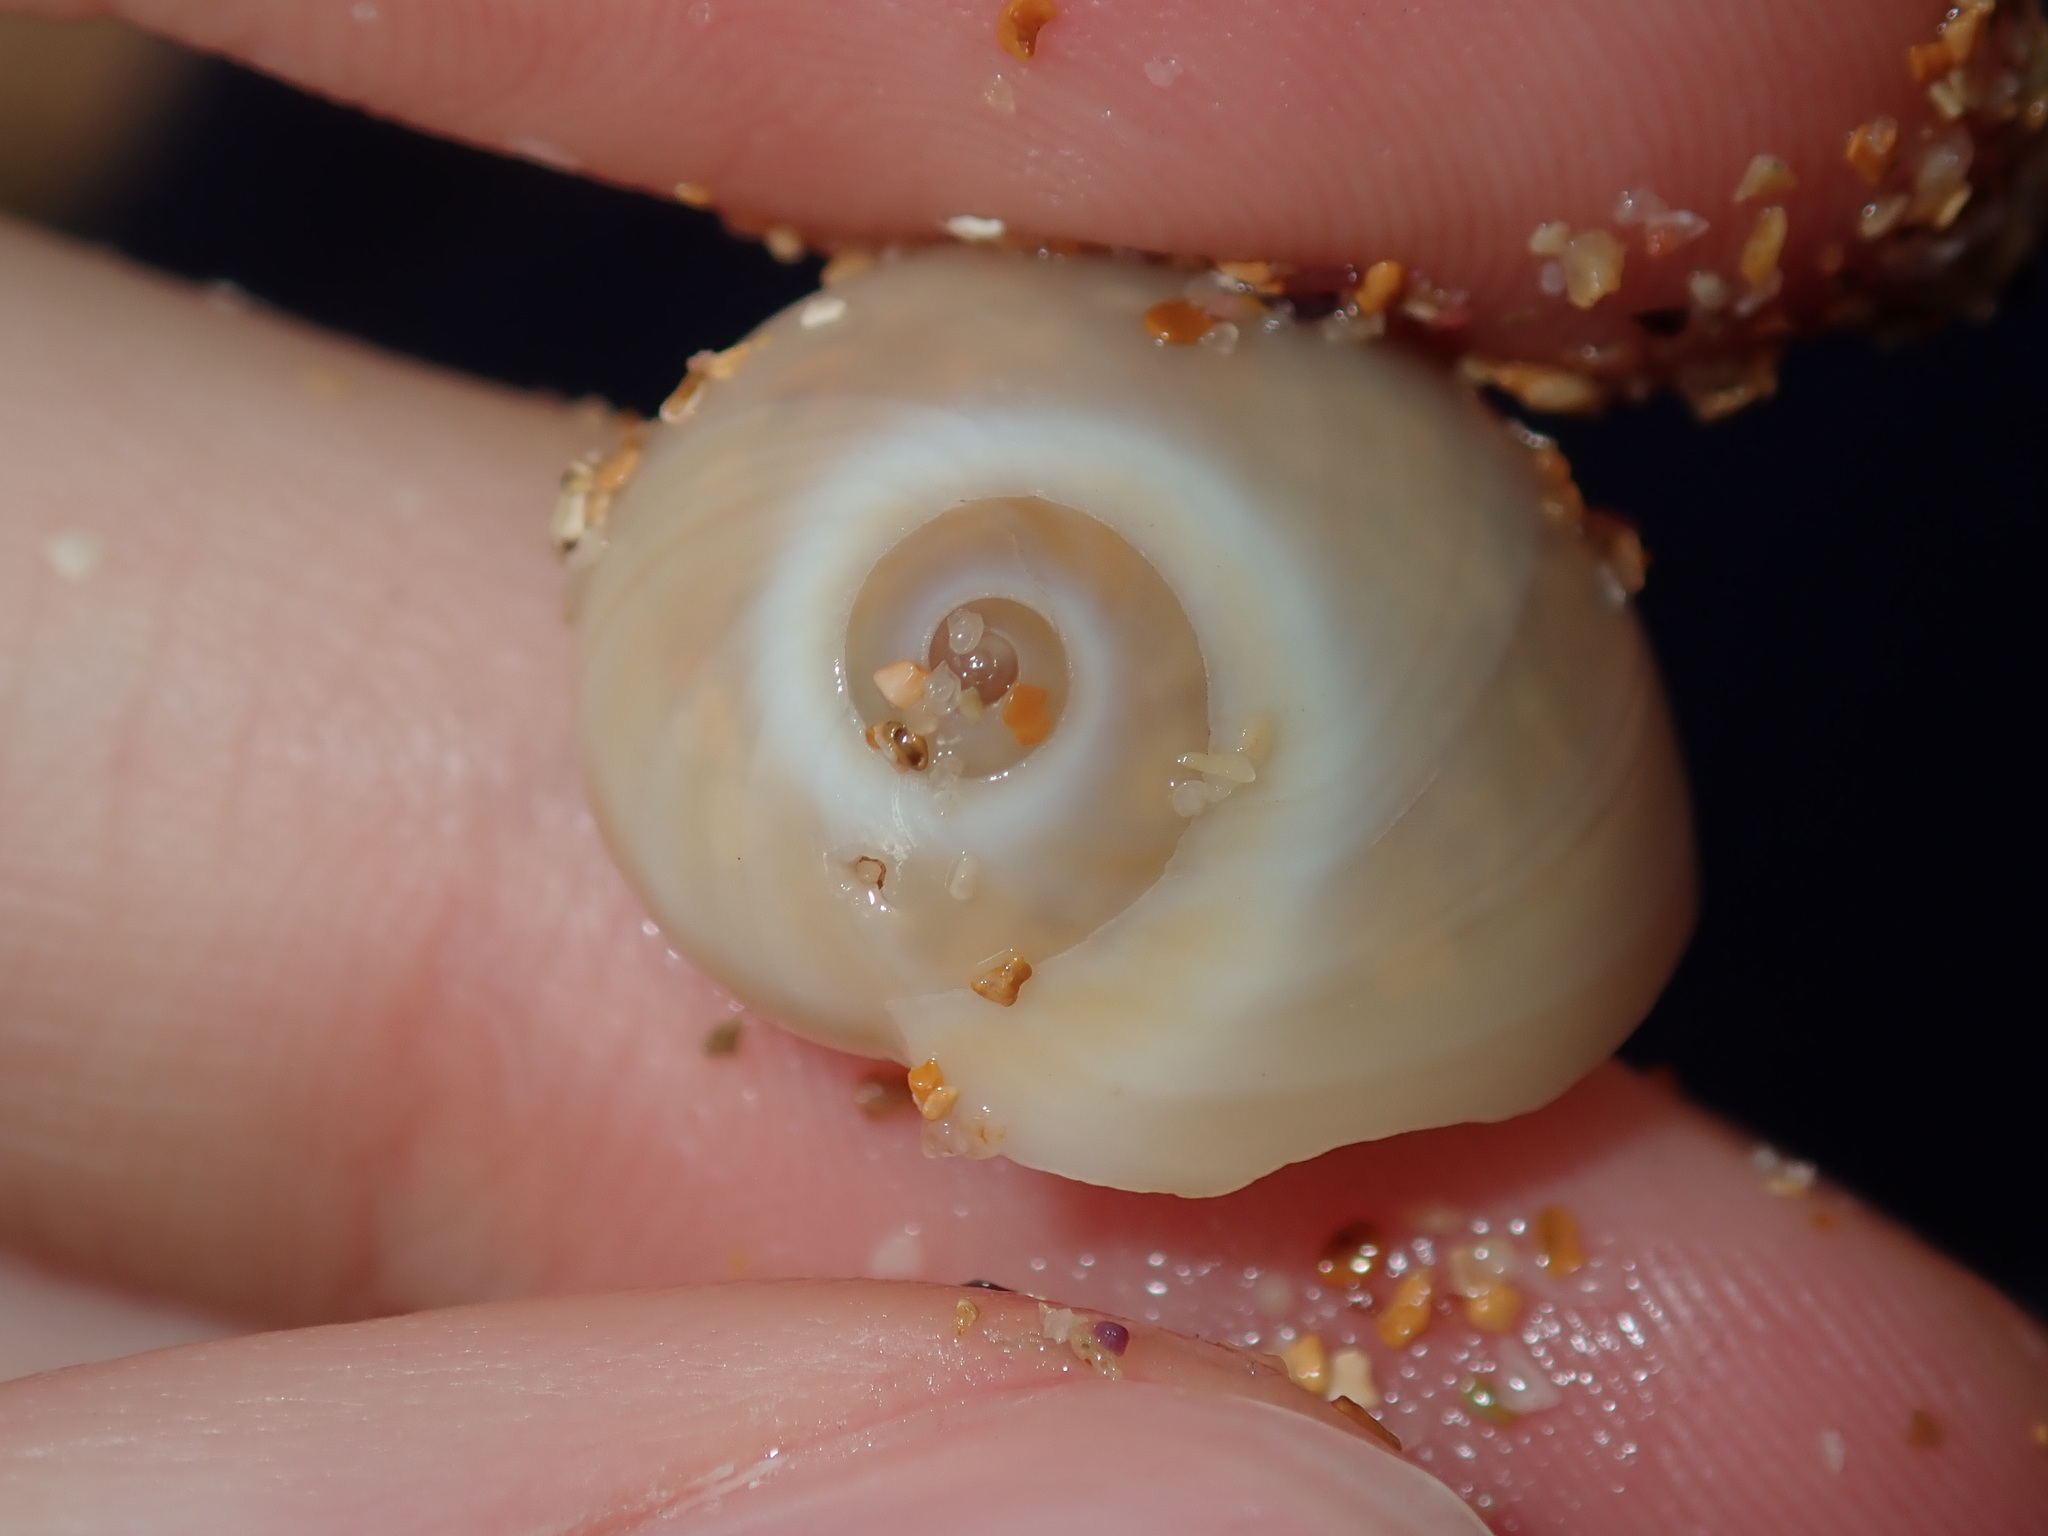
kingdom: Animalia
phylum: Mollusca
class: Gastropoda
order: Littorinimorpha
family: Naticidae
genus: Neverita
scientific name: Neverita didyma
